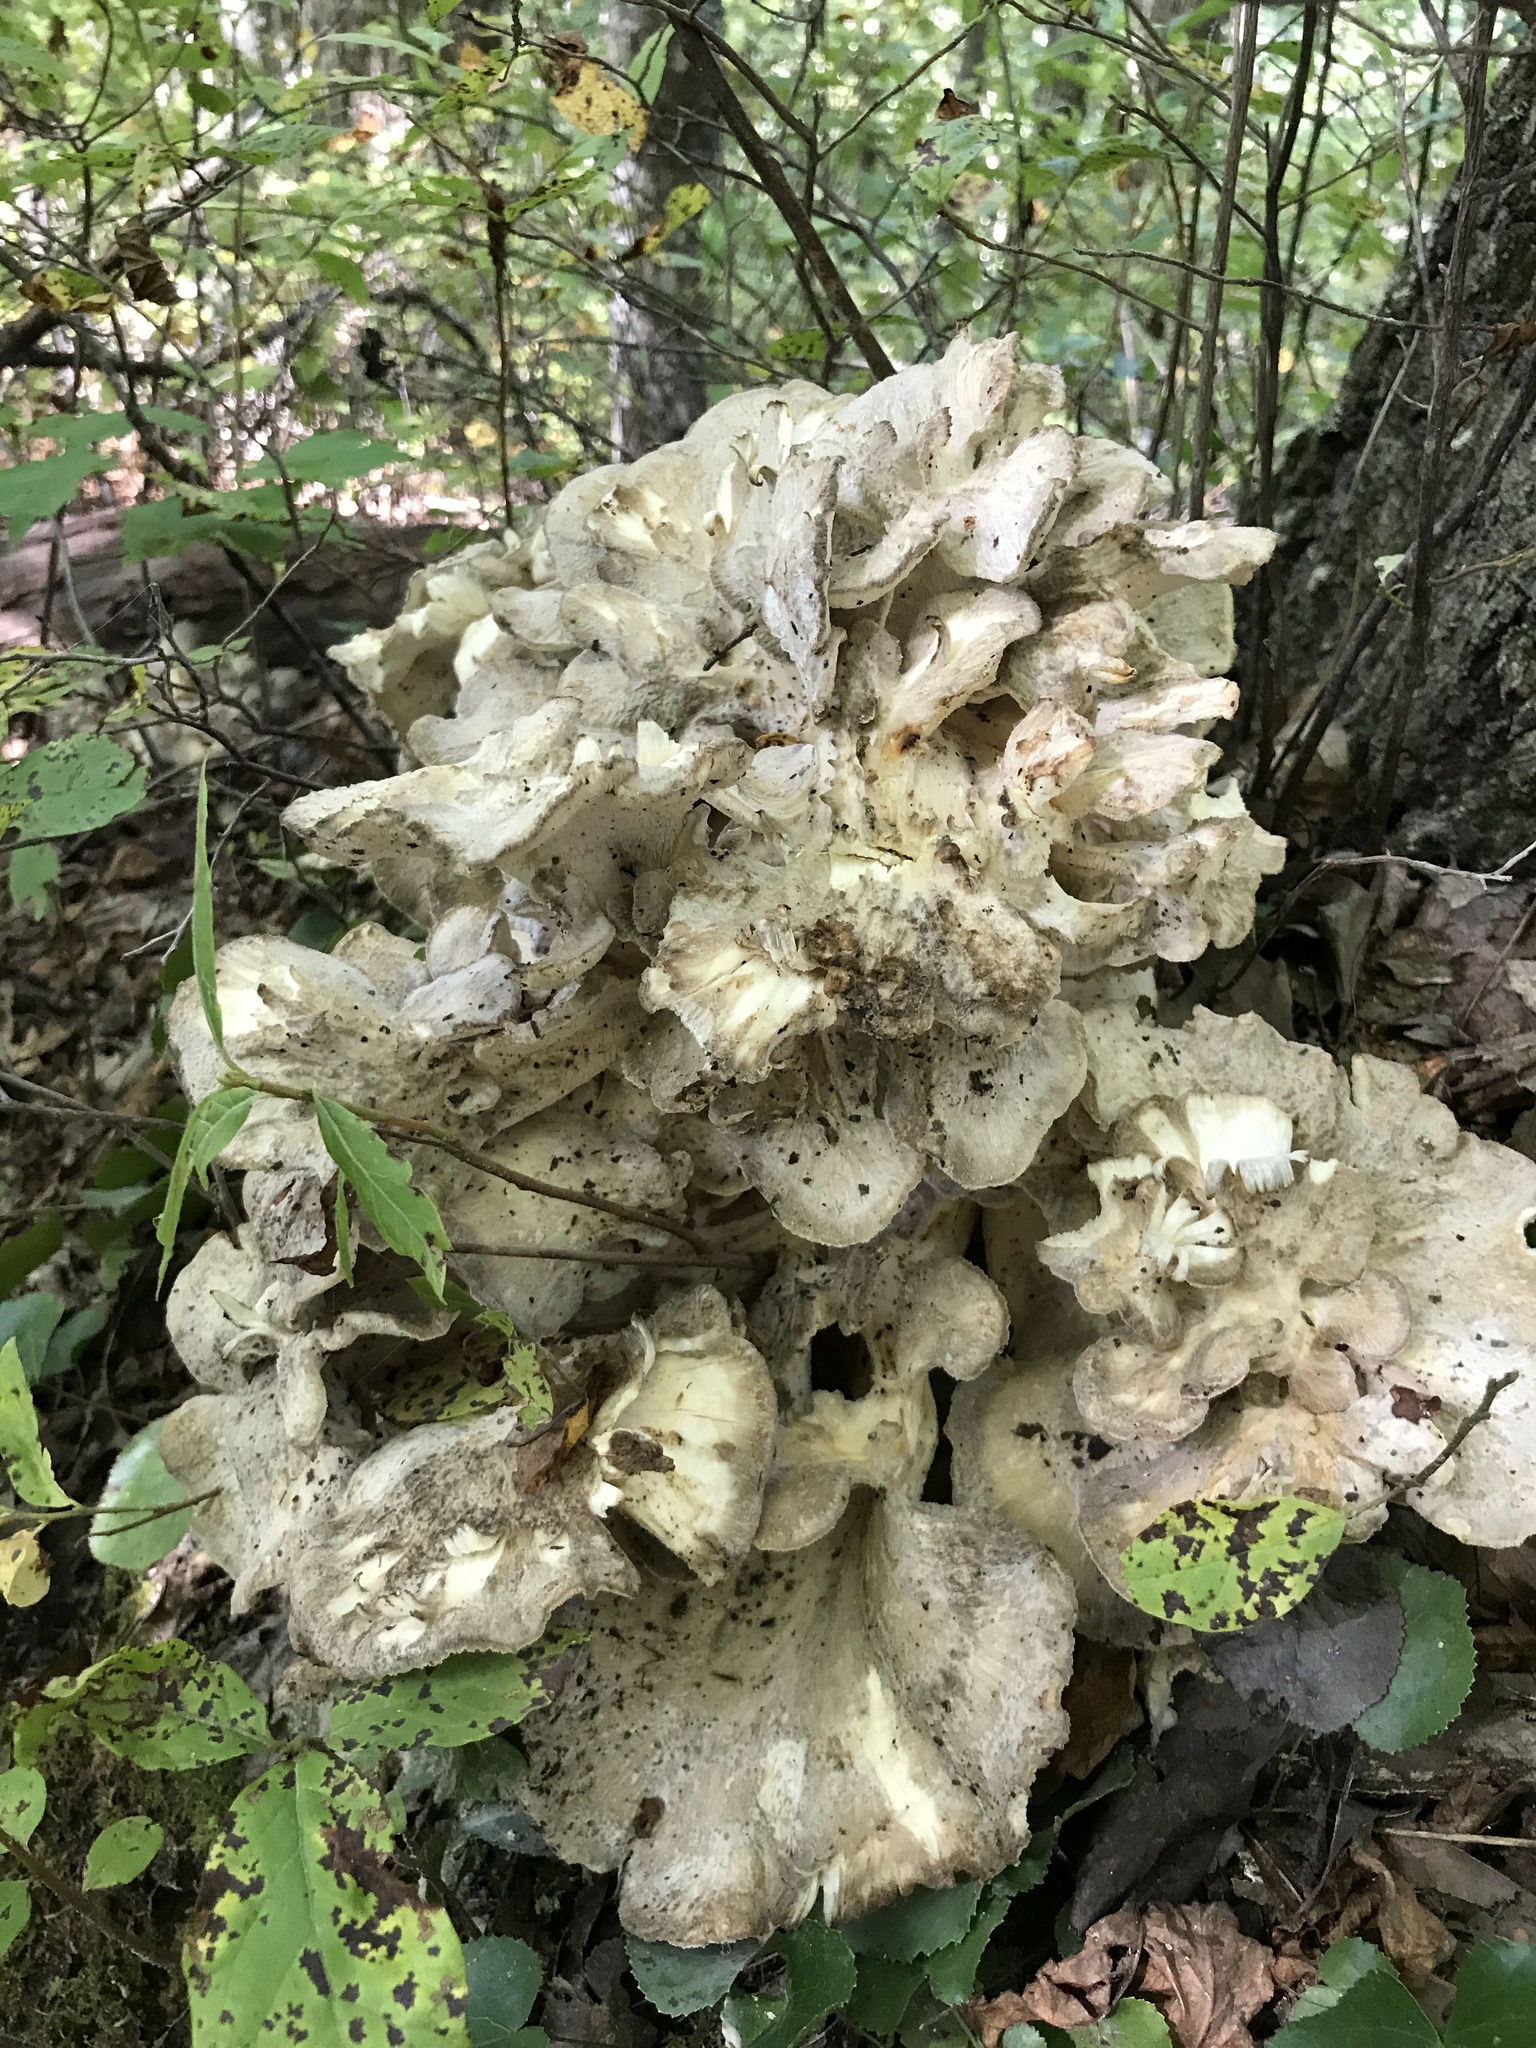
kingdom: Fungi
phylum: Basidiomycota
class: Agaricomycetes
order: Polyporales
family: Grifolaceae
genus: Grifola
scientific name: Grifola frondosa
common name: Hen of the woods
